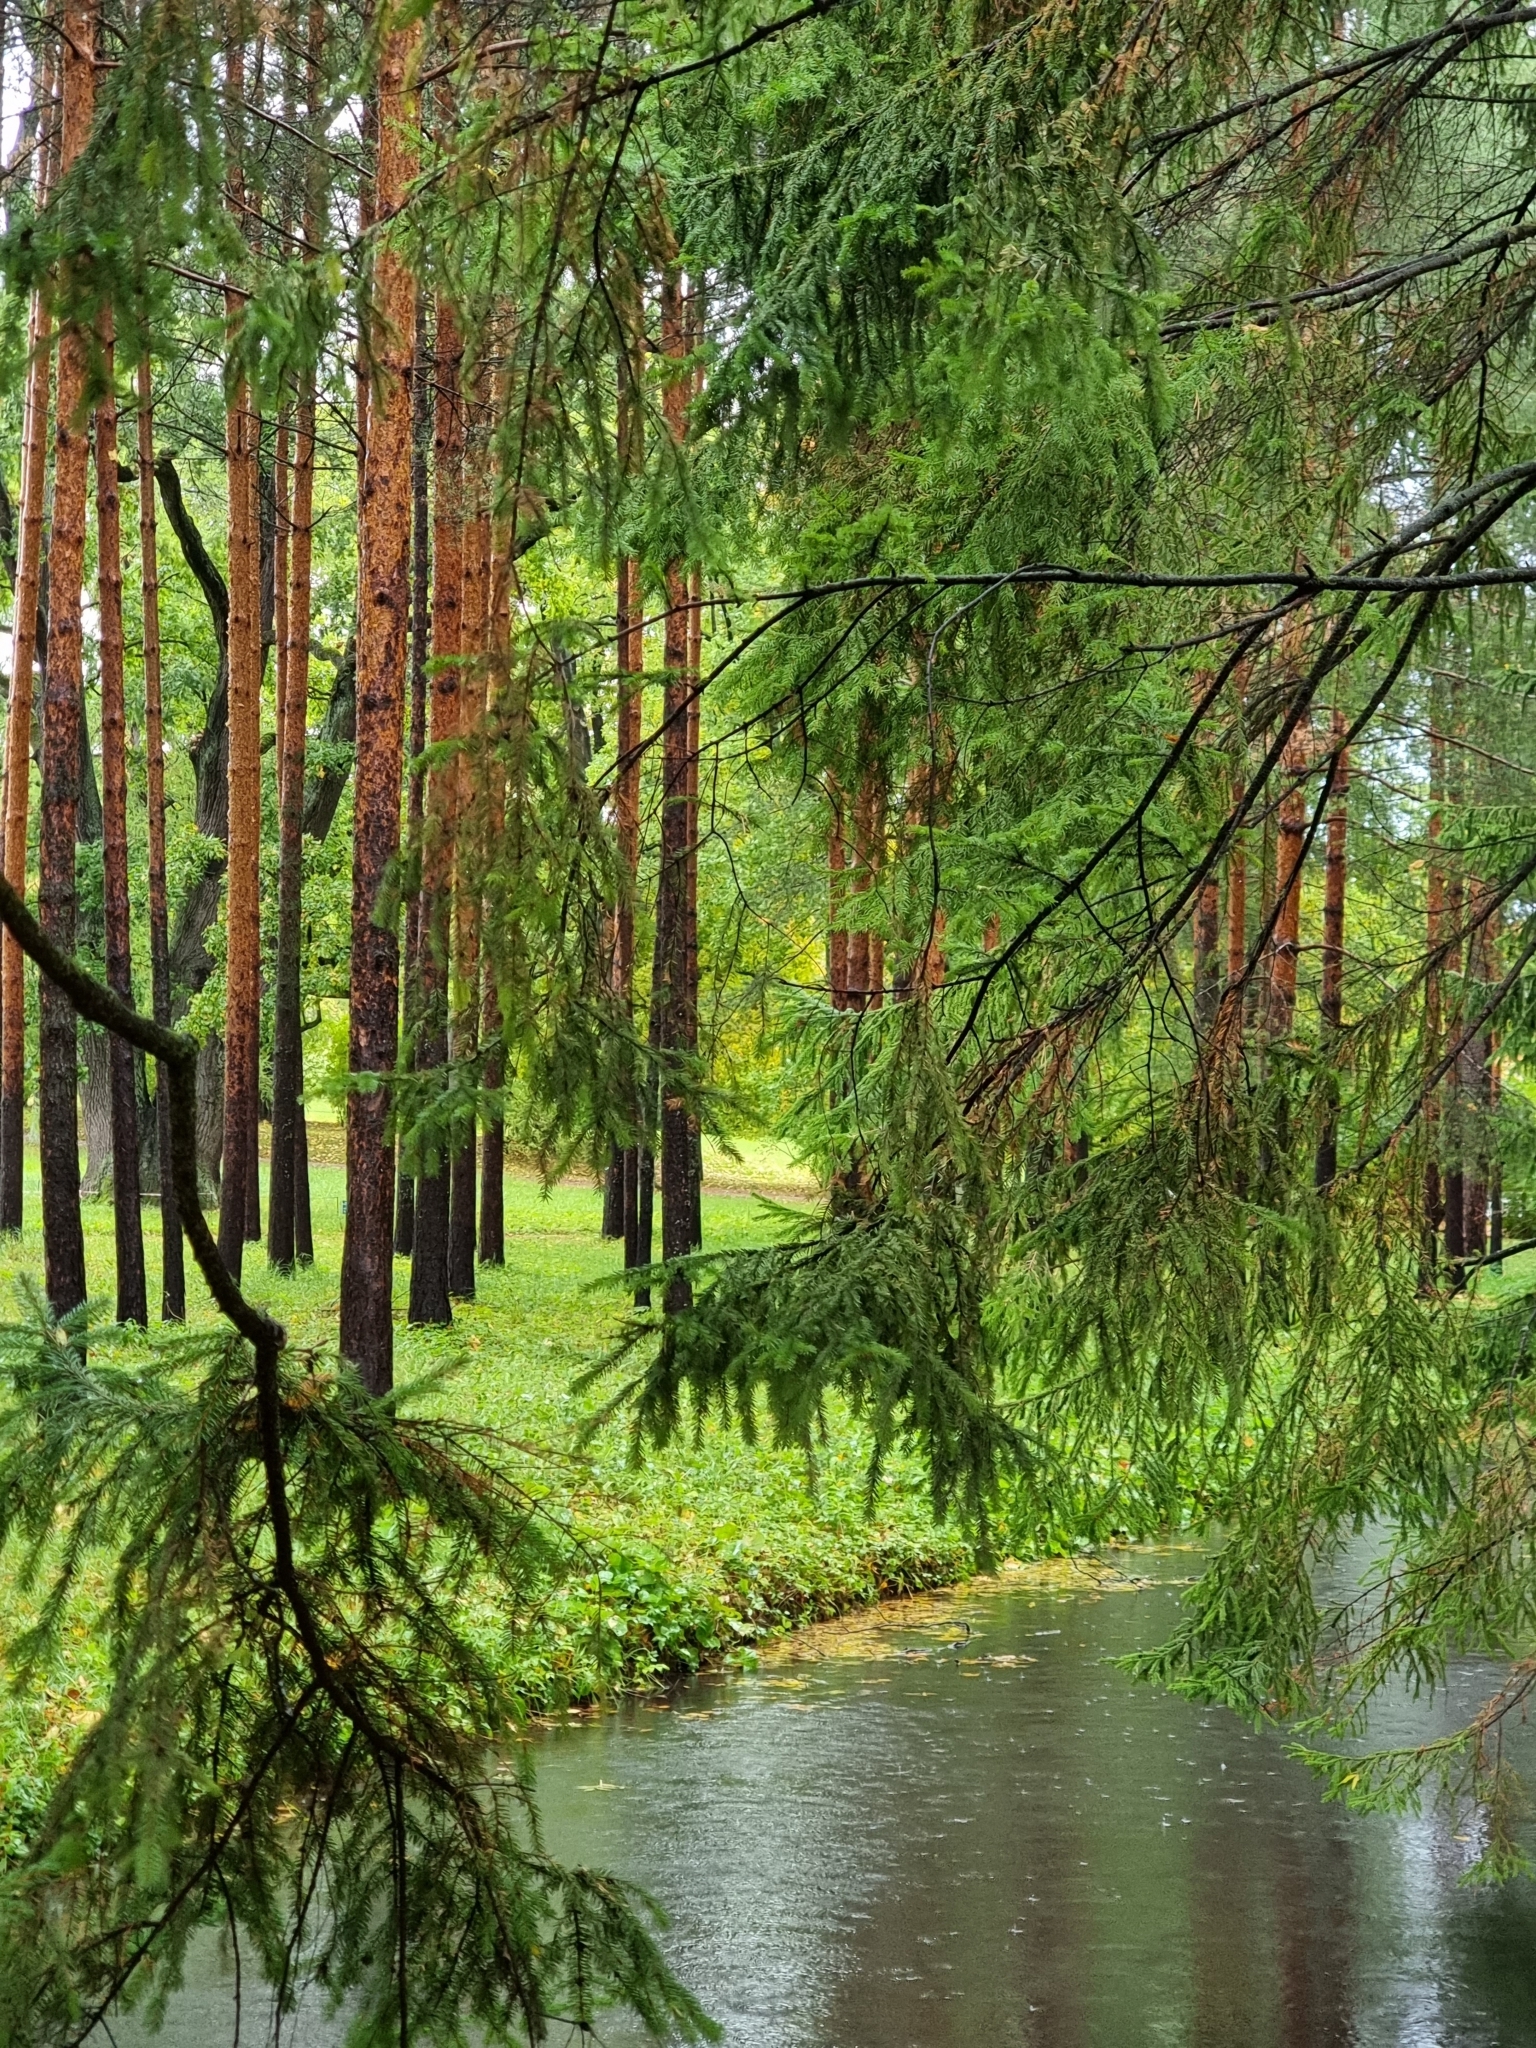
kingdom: Plantae
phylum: Tracheophyta
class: Pinopsida
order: Pinales
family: Pinaceae
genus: Pinus
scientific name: Pinus sylvestris
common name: Scots pine
